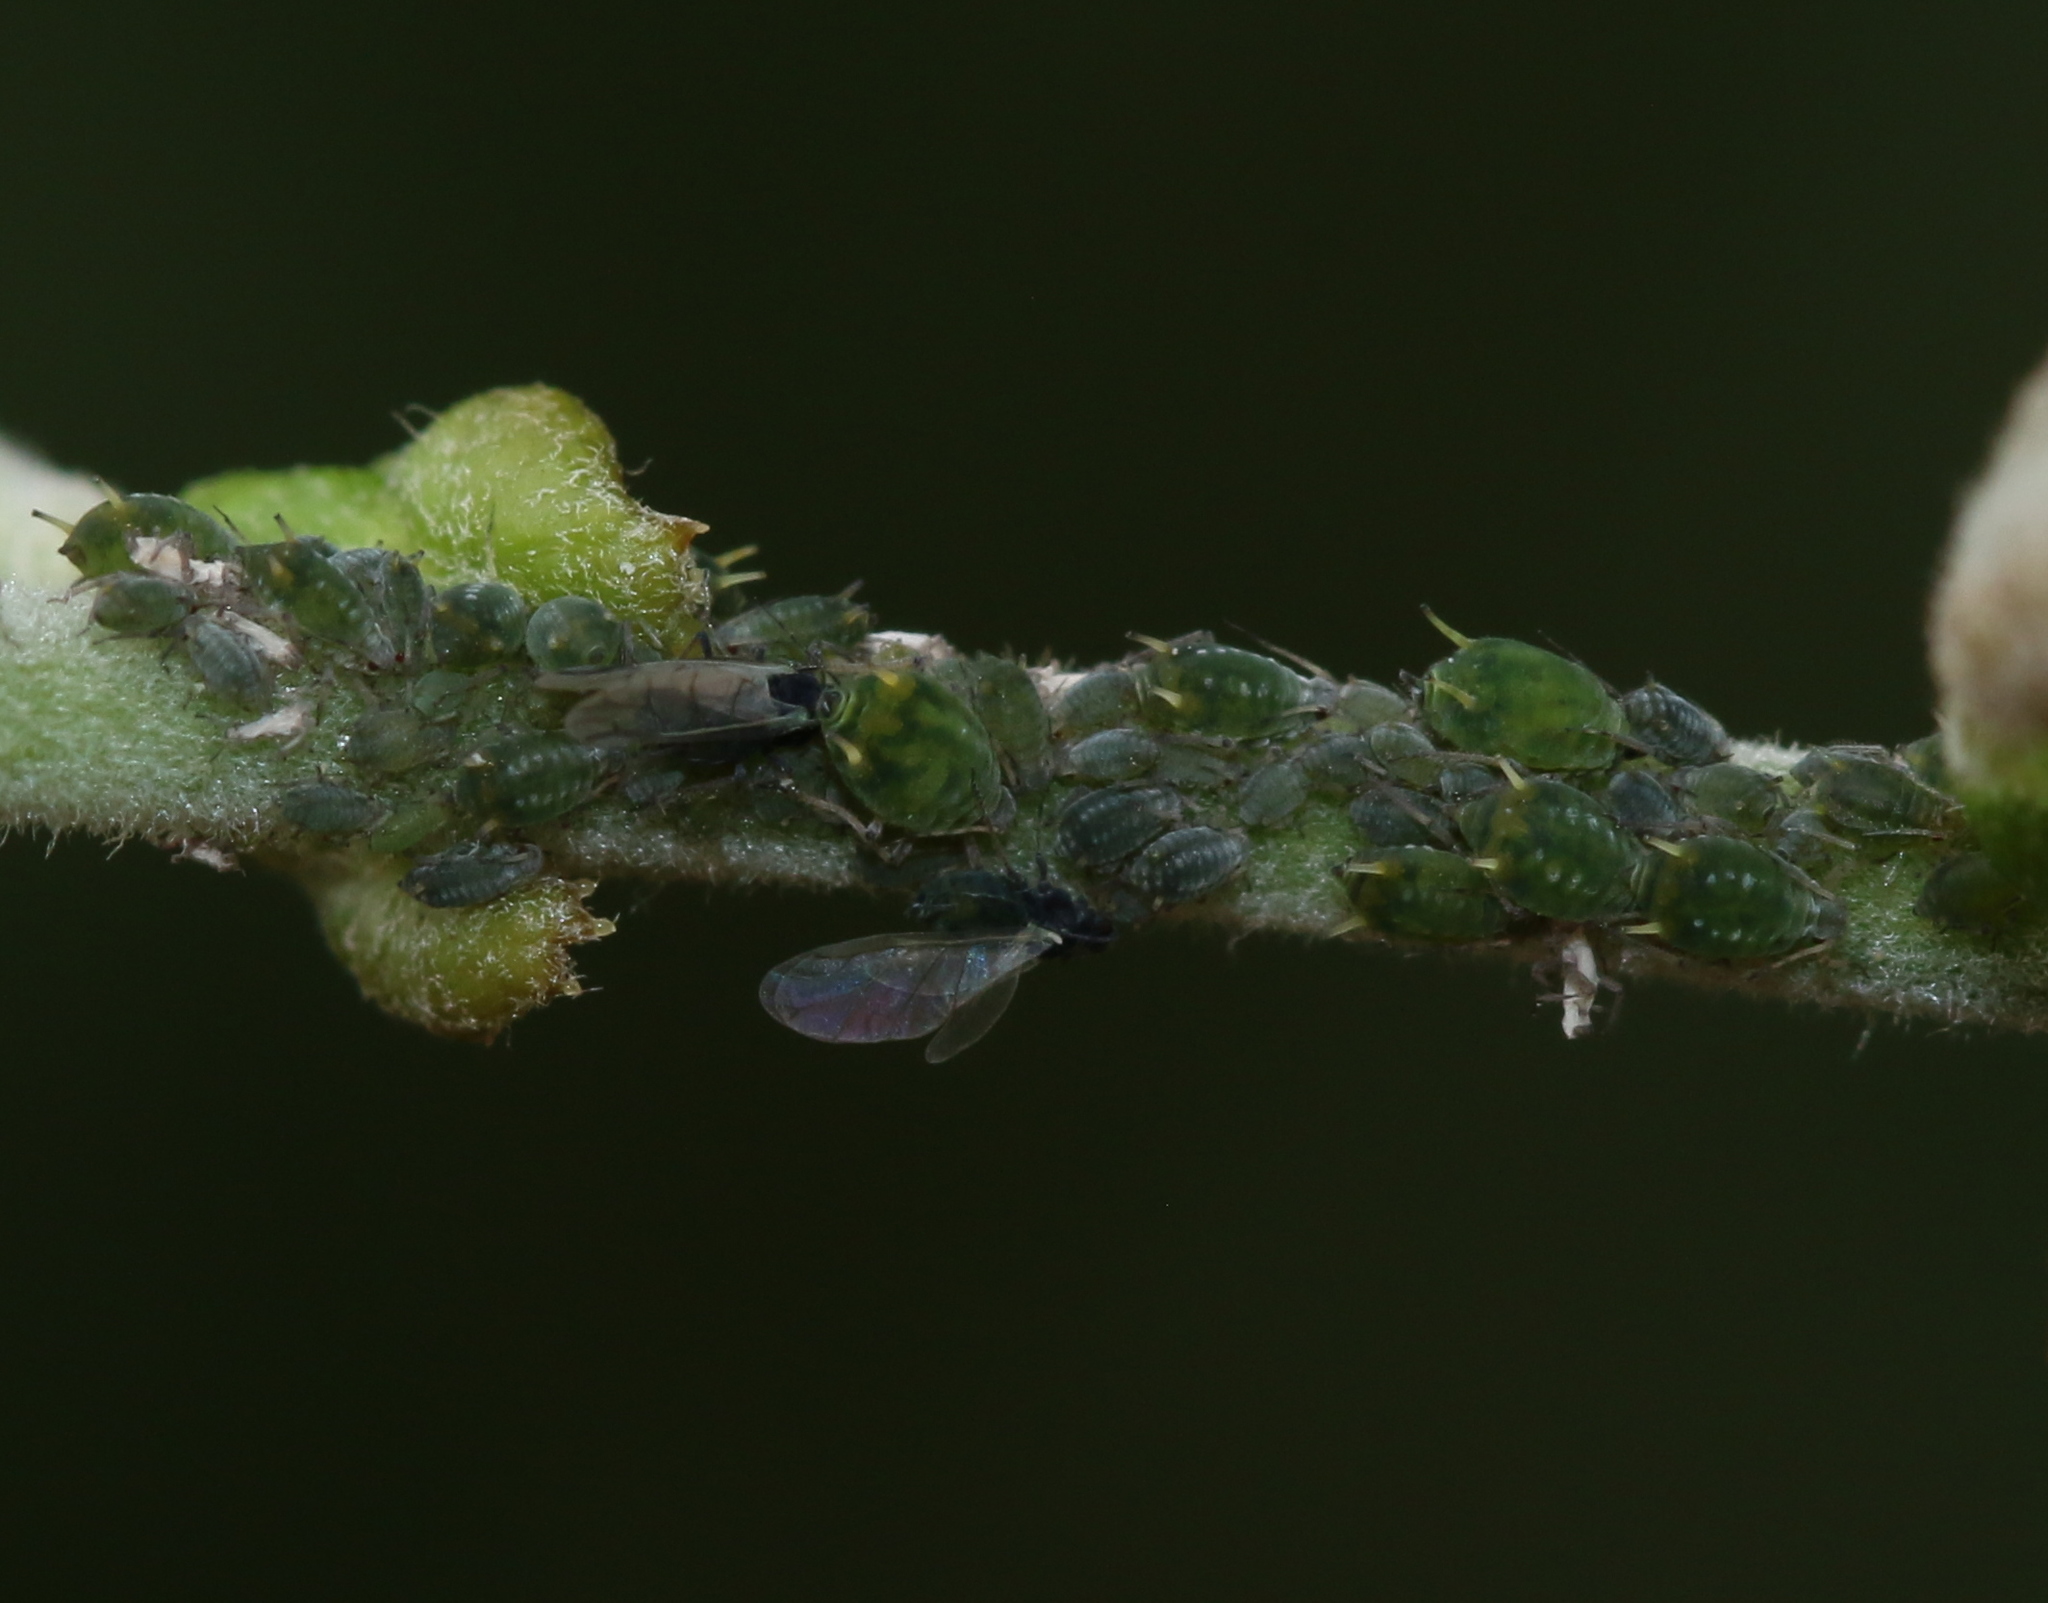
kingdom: Animalia
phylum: Arthropoda
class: Insecta
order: Hemiptera
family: Aphididae
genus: Aphis
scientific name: Aphis farinosa
